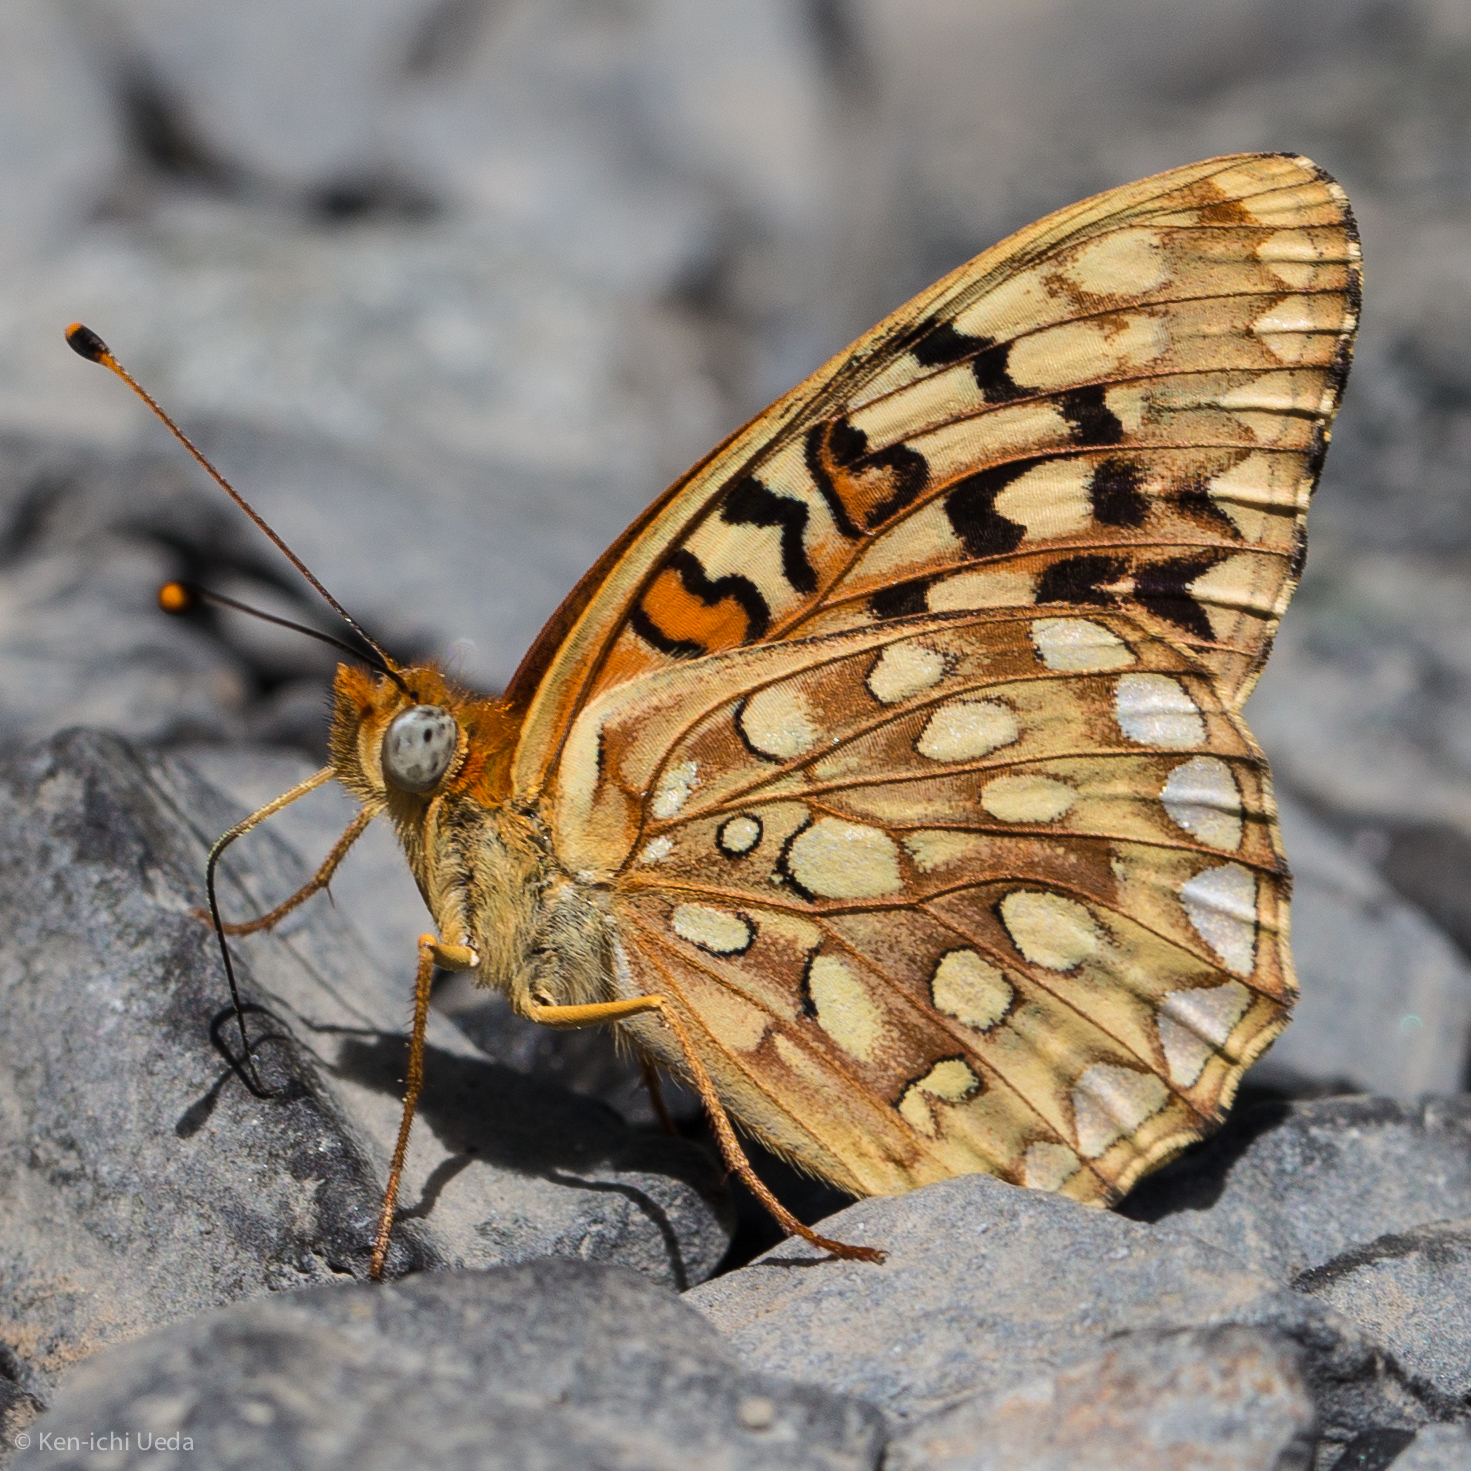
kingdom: Animalia
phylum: Arthropoda
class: Insecta
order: Lepidoptera
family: Nymphalidae
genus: Speyeria
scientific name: Speyeria callippe
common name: Callippe fritillary
